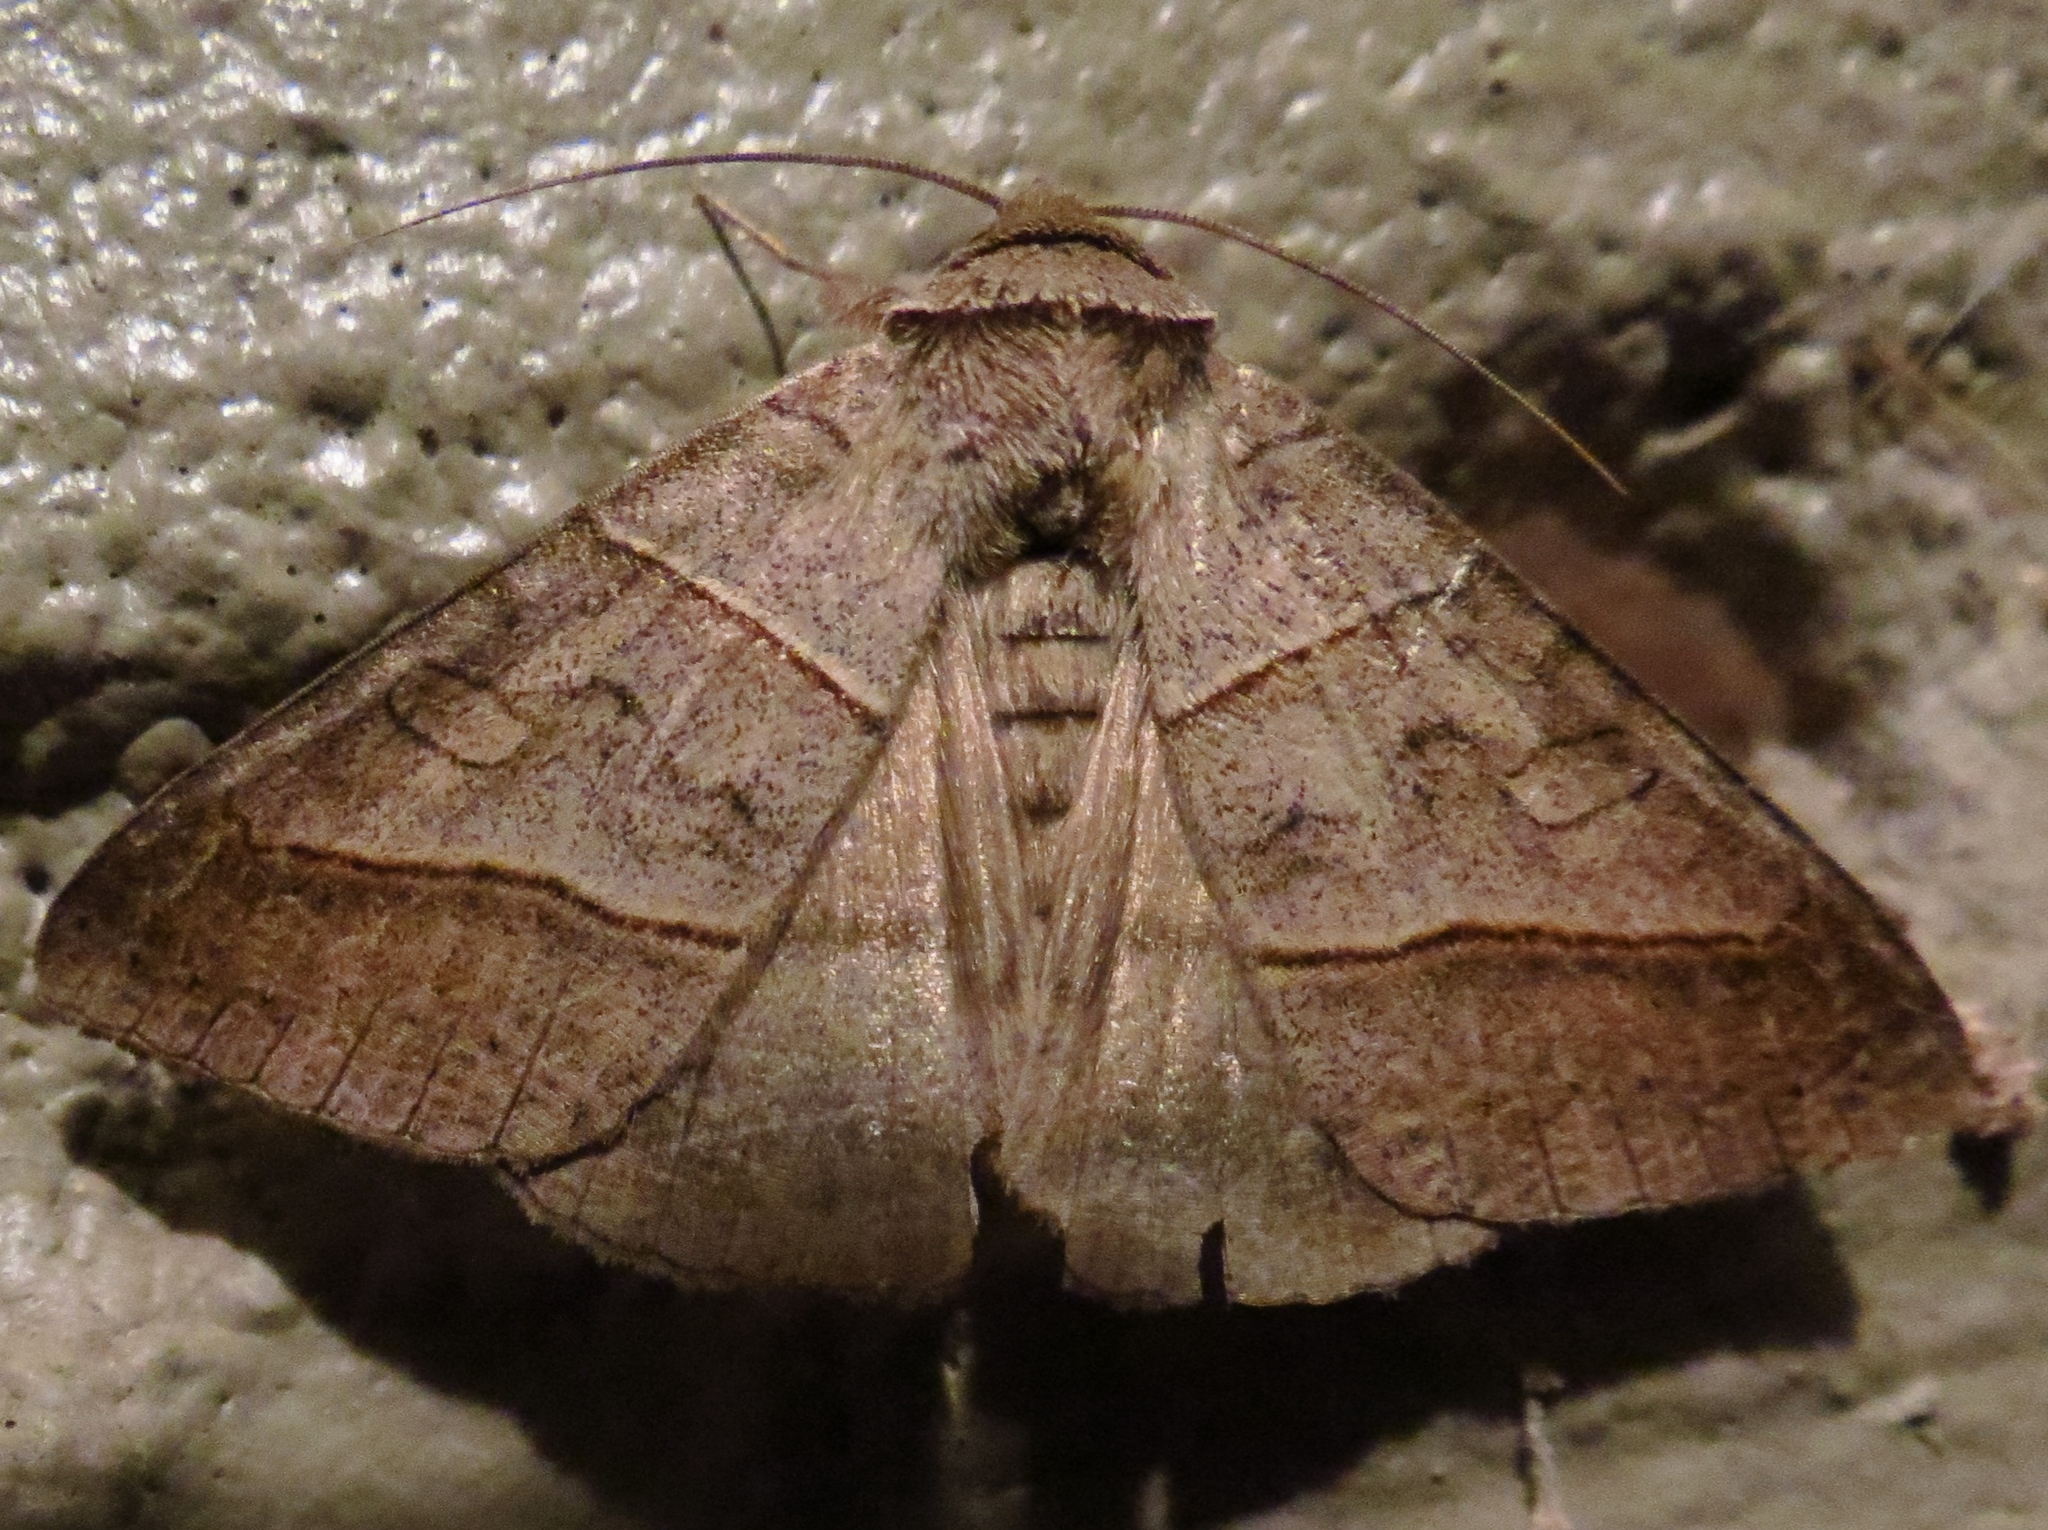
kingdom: Animalia
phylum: Arthropoda
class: Insecta
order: Lepidoptera
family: Erebidae
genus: Mocis
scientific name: Mocis texana
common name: Texas mocis moth
